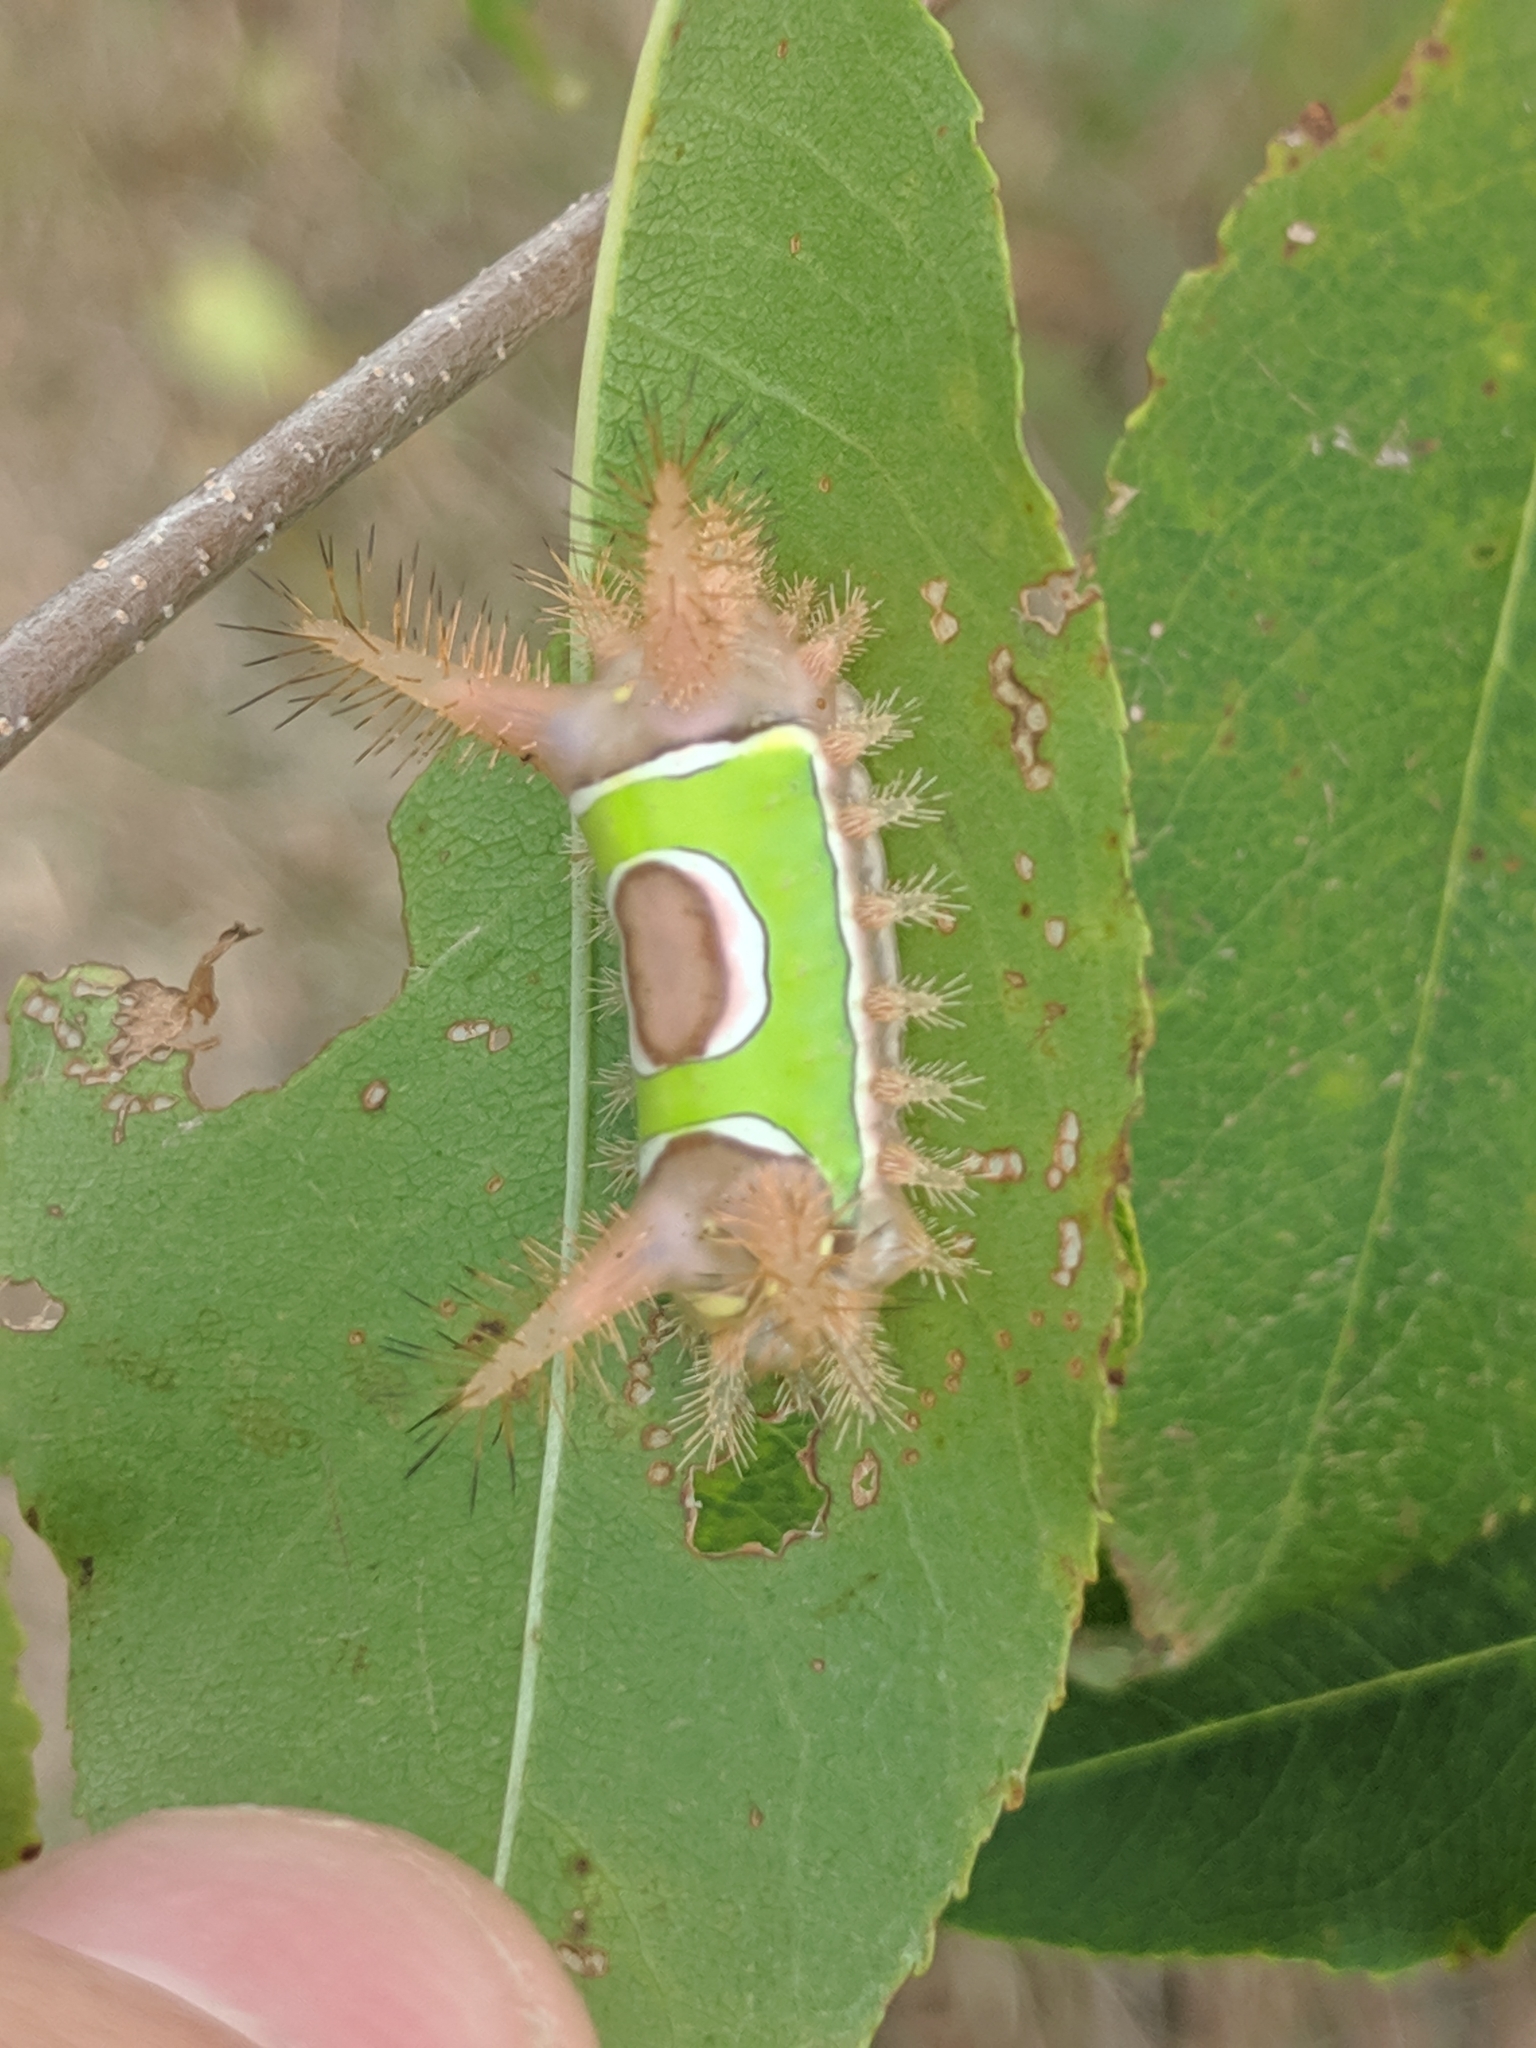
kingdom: Animalia
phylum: Arthropoda
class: Insecta
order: Lepidoptera
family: Limacodidae
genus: Acharia
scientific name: Acharia stimulea
